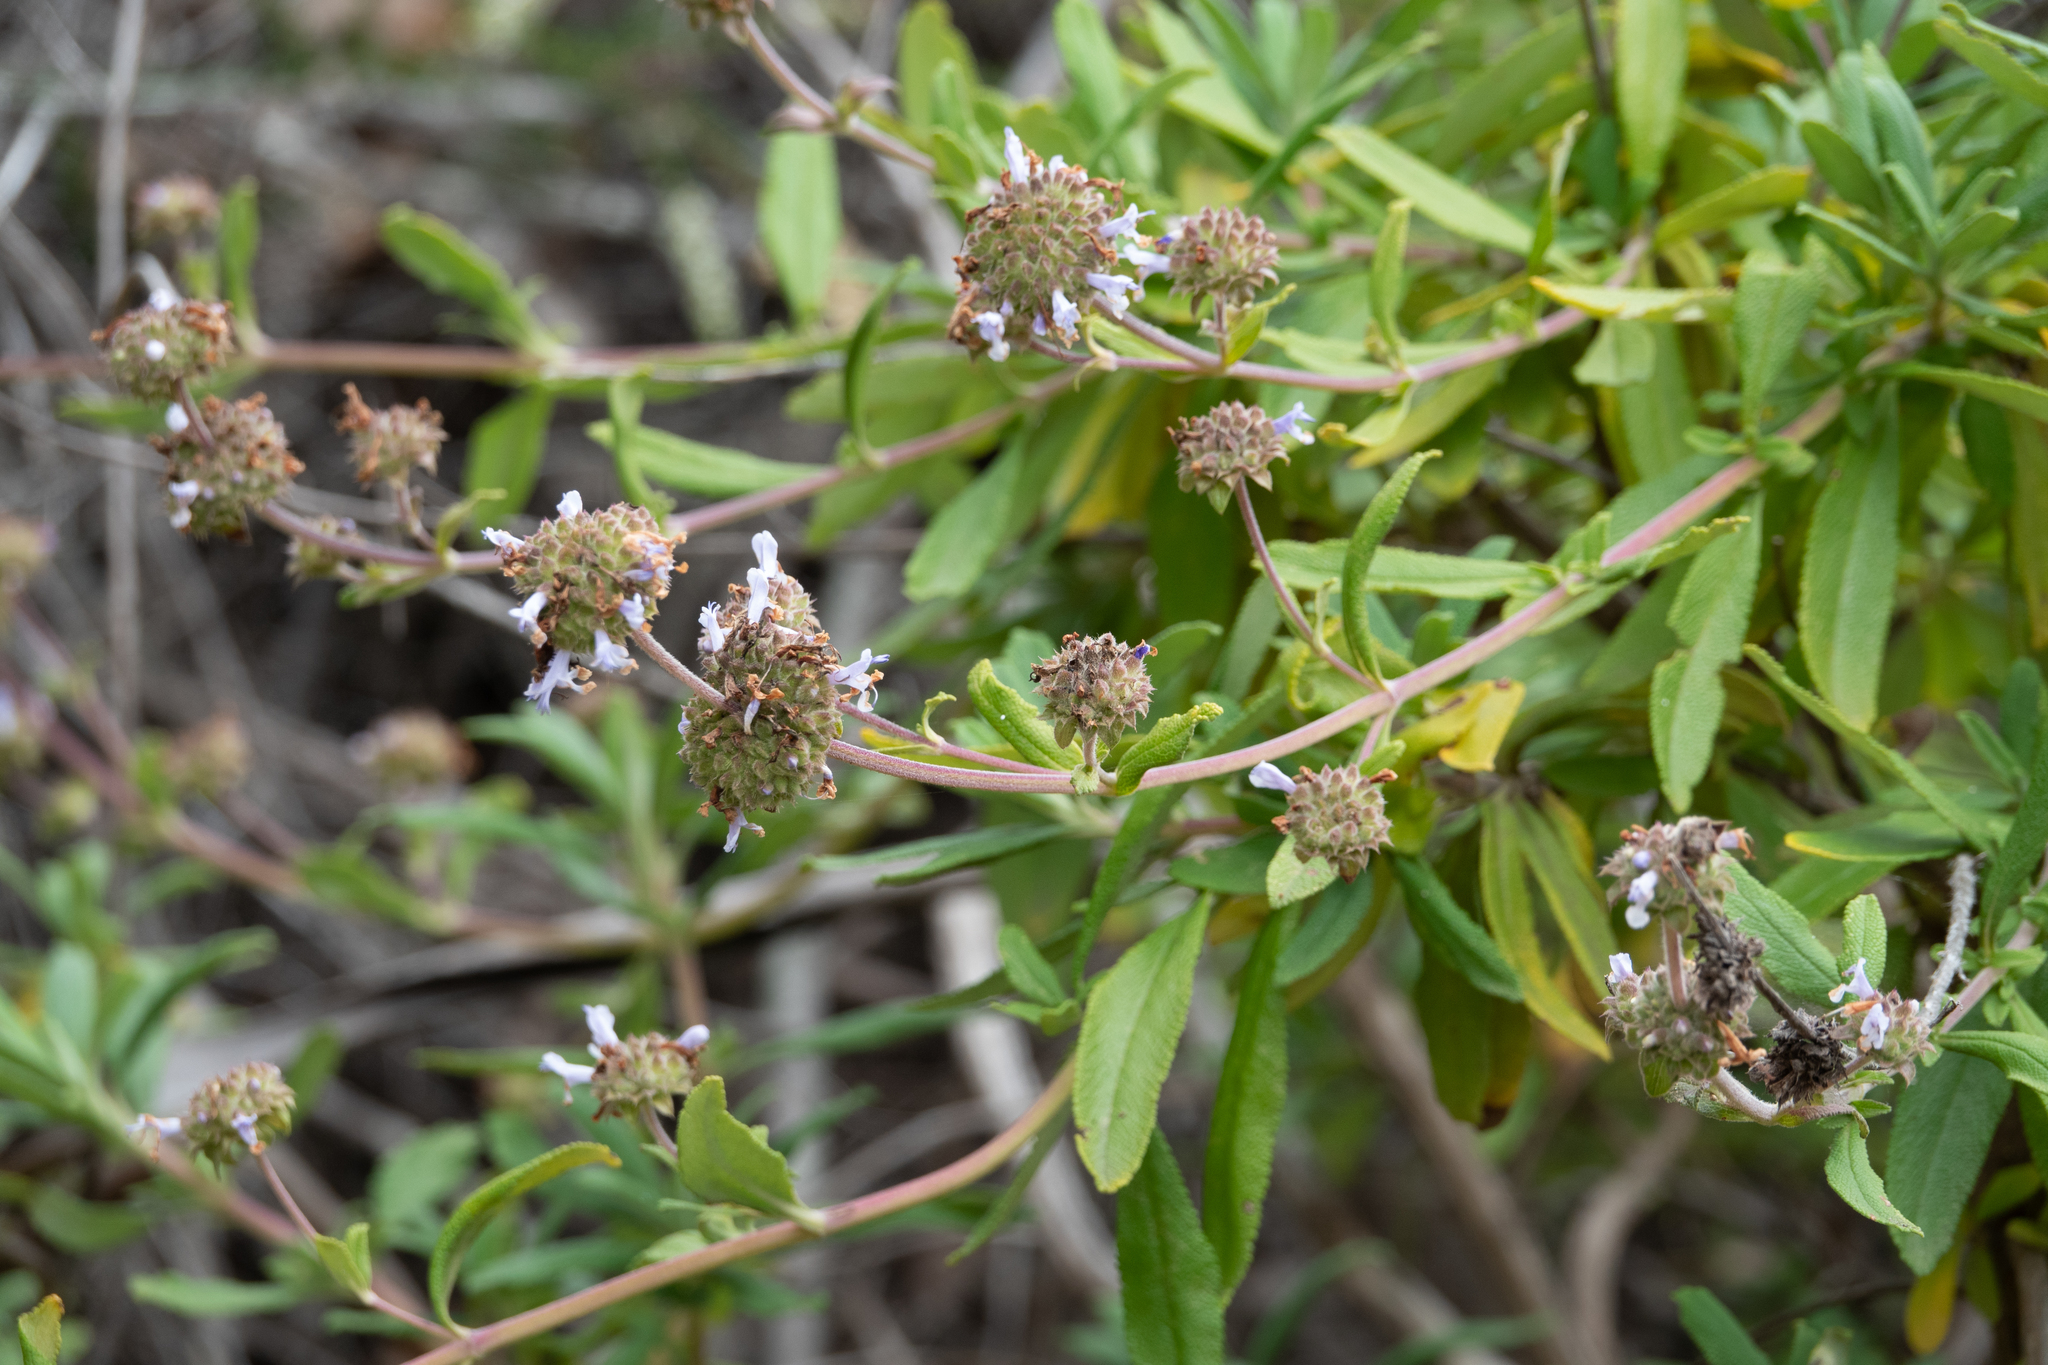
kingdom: Plantae
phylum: Tracheophyta
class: Magnoliopsida
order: Lamiales
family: Lamiaceae
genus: Salvia
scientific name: Salvia mellifera
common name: Black sage
